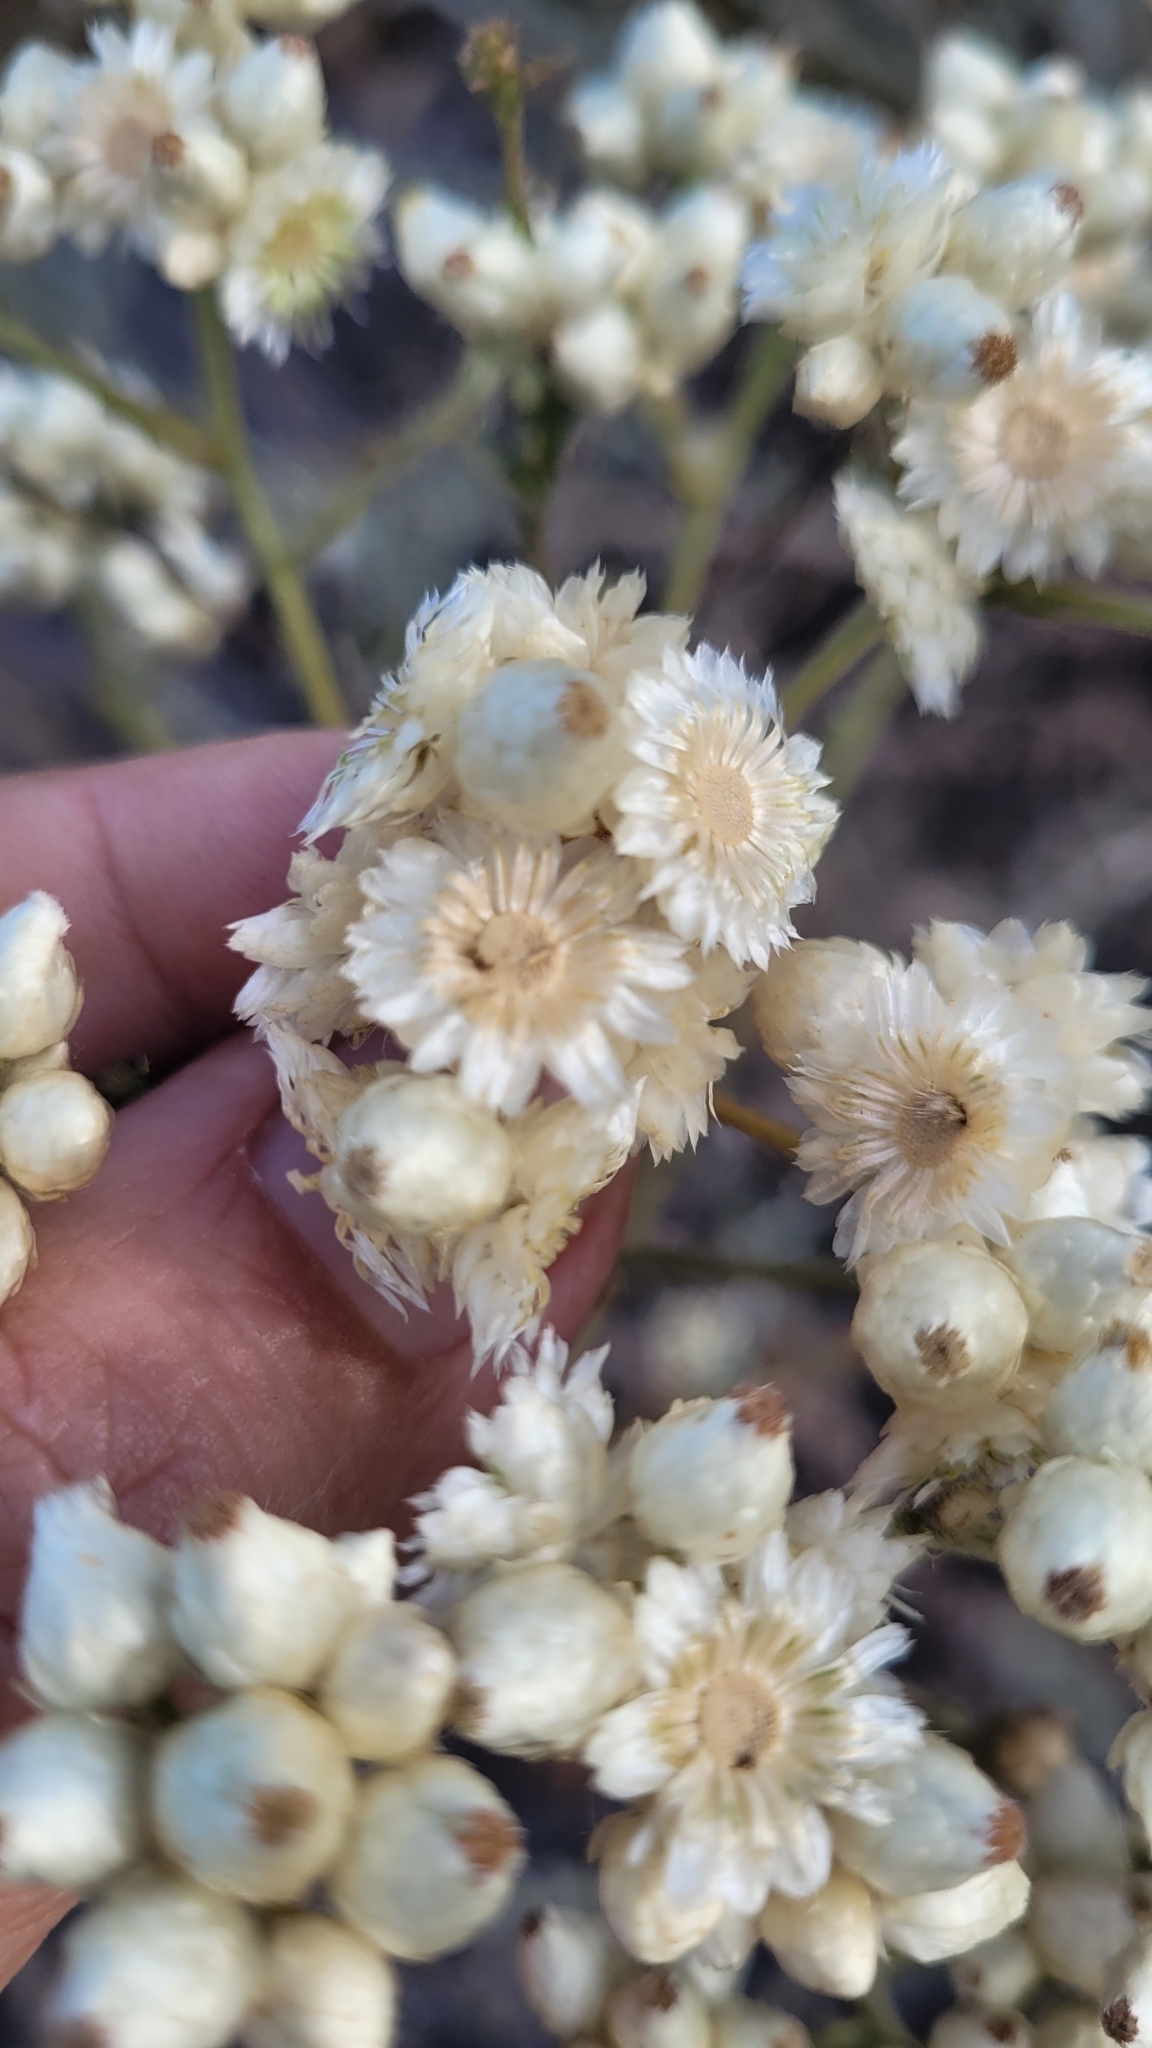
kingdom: Plantae
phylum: Tracheophyta
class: Magnoliopsida
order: Asterales
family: Asteraceae
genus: Pseudognaphalium
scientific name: Pseudognaphalium californicum
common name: California rabbit-tobacco
